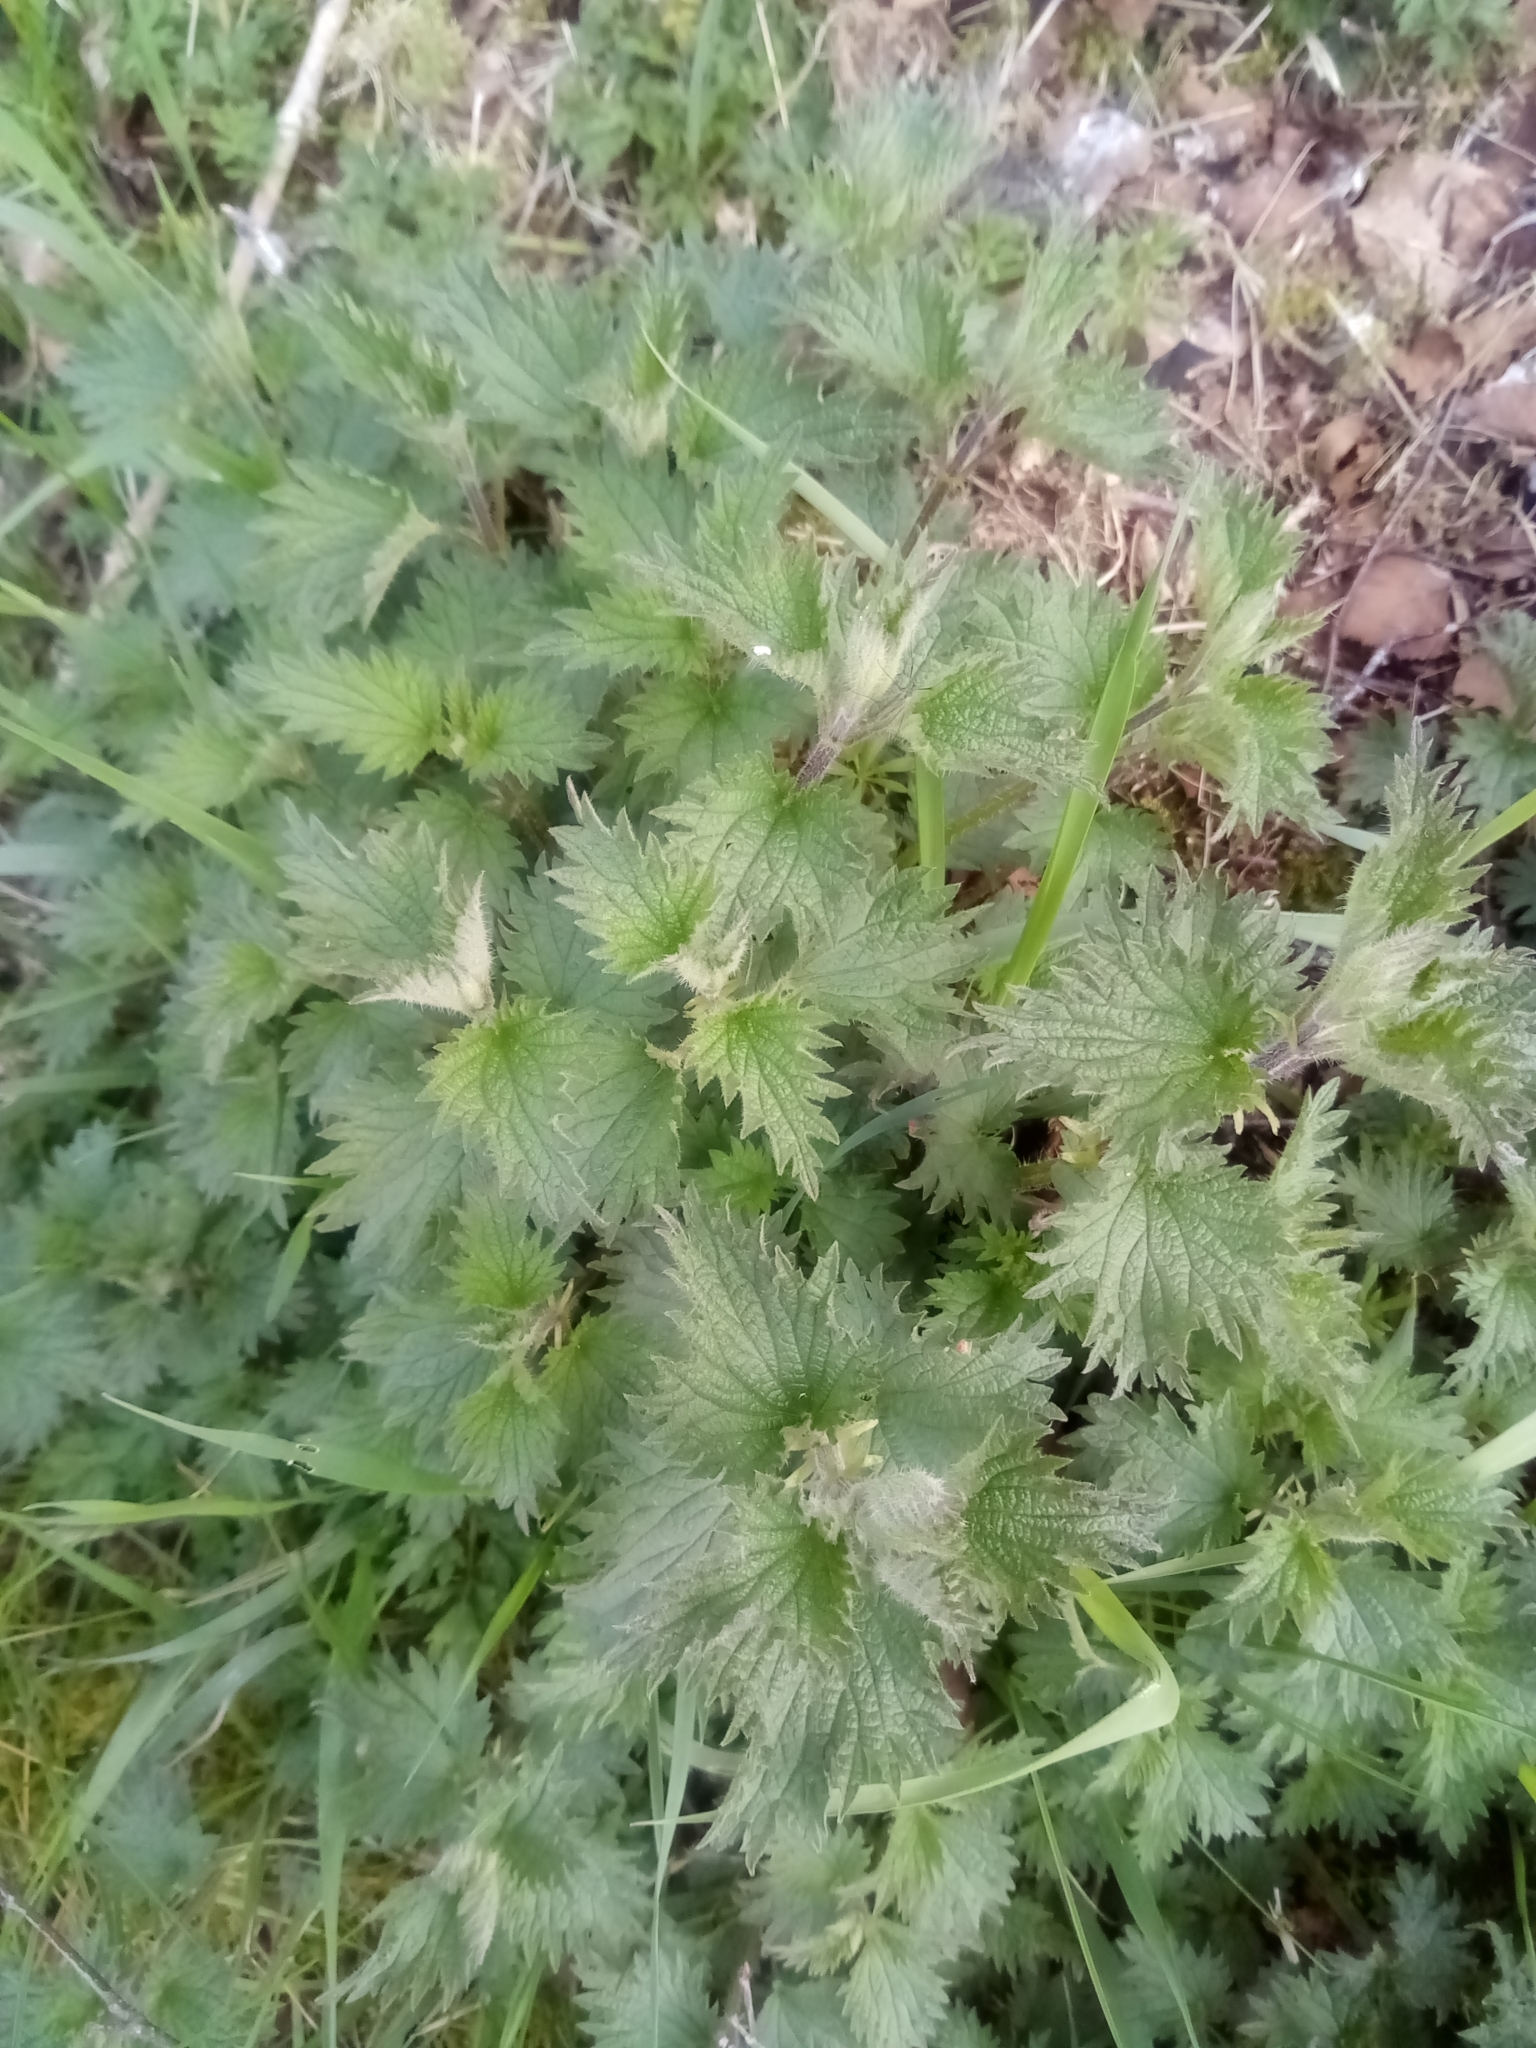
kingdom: Plantae
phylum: Tracheophyta
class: Magnoliopsida
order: Rosales
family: Urticaceae
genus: Urtica
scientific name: Urtica dioica
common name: Common nettle
